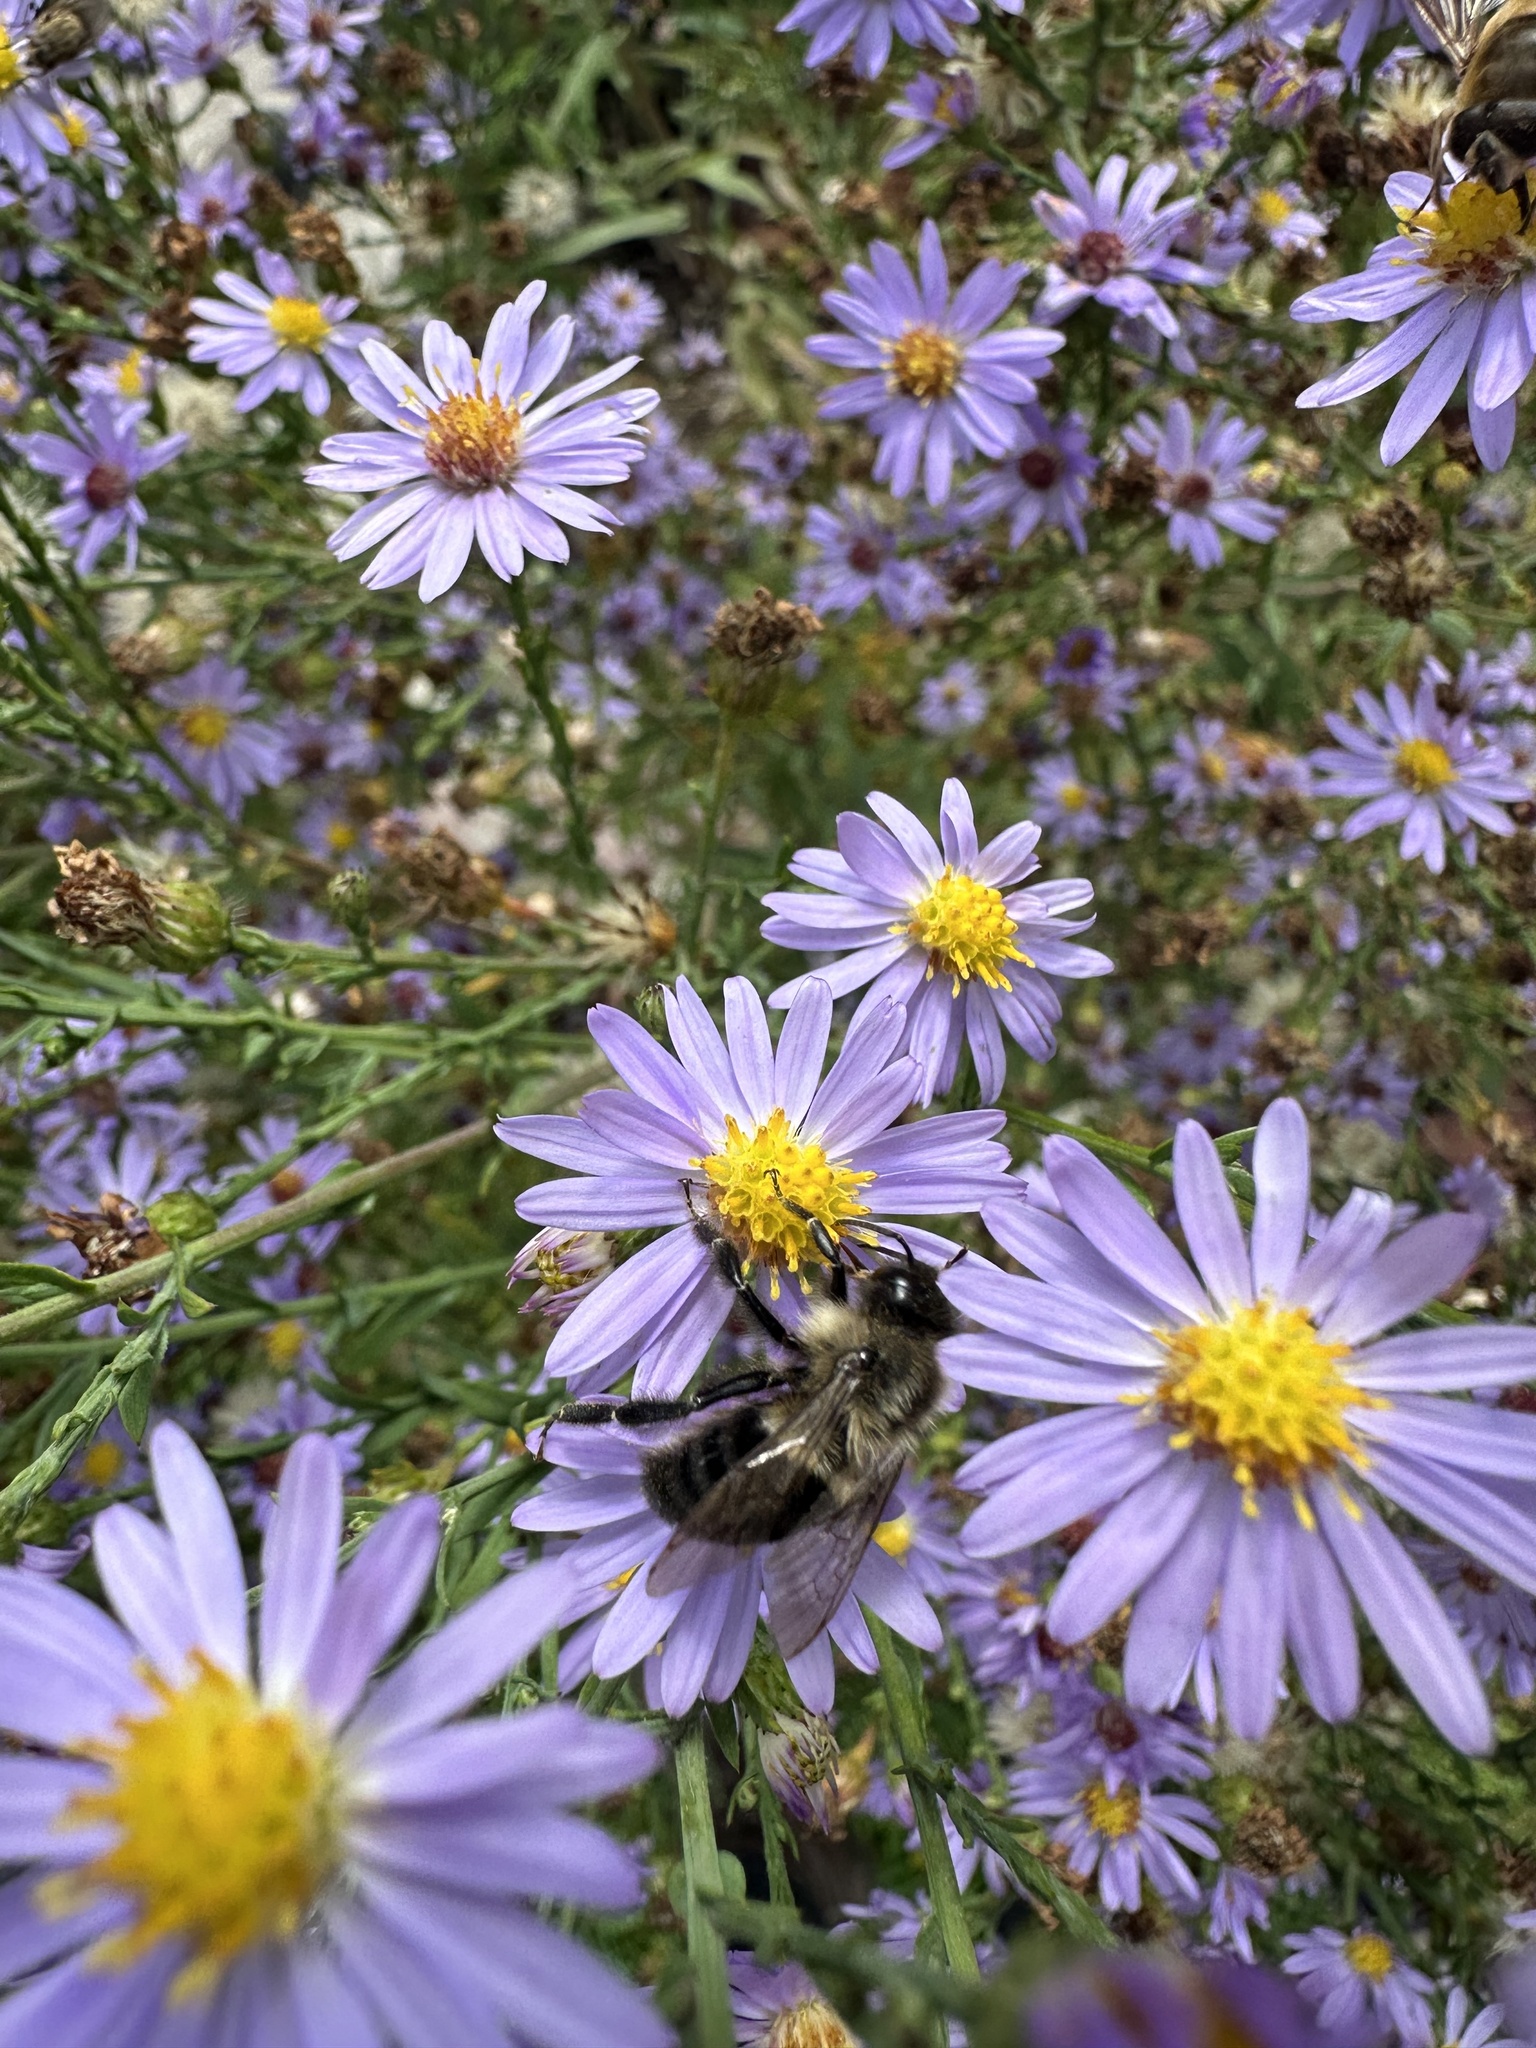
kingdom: Animalia
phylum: Arthropoda
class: Insecta
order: Hymenoptera
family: Apidae
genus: Bombus
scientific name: Bombus impatiens
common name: Common eastern bumble bee
